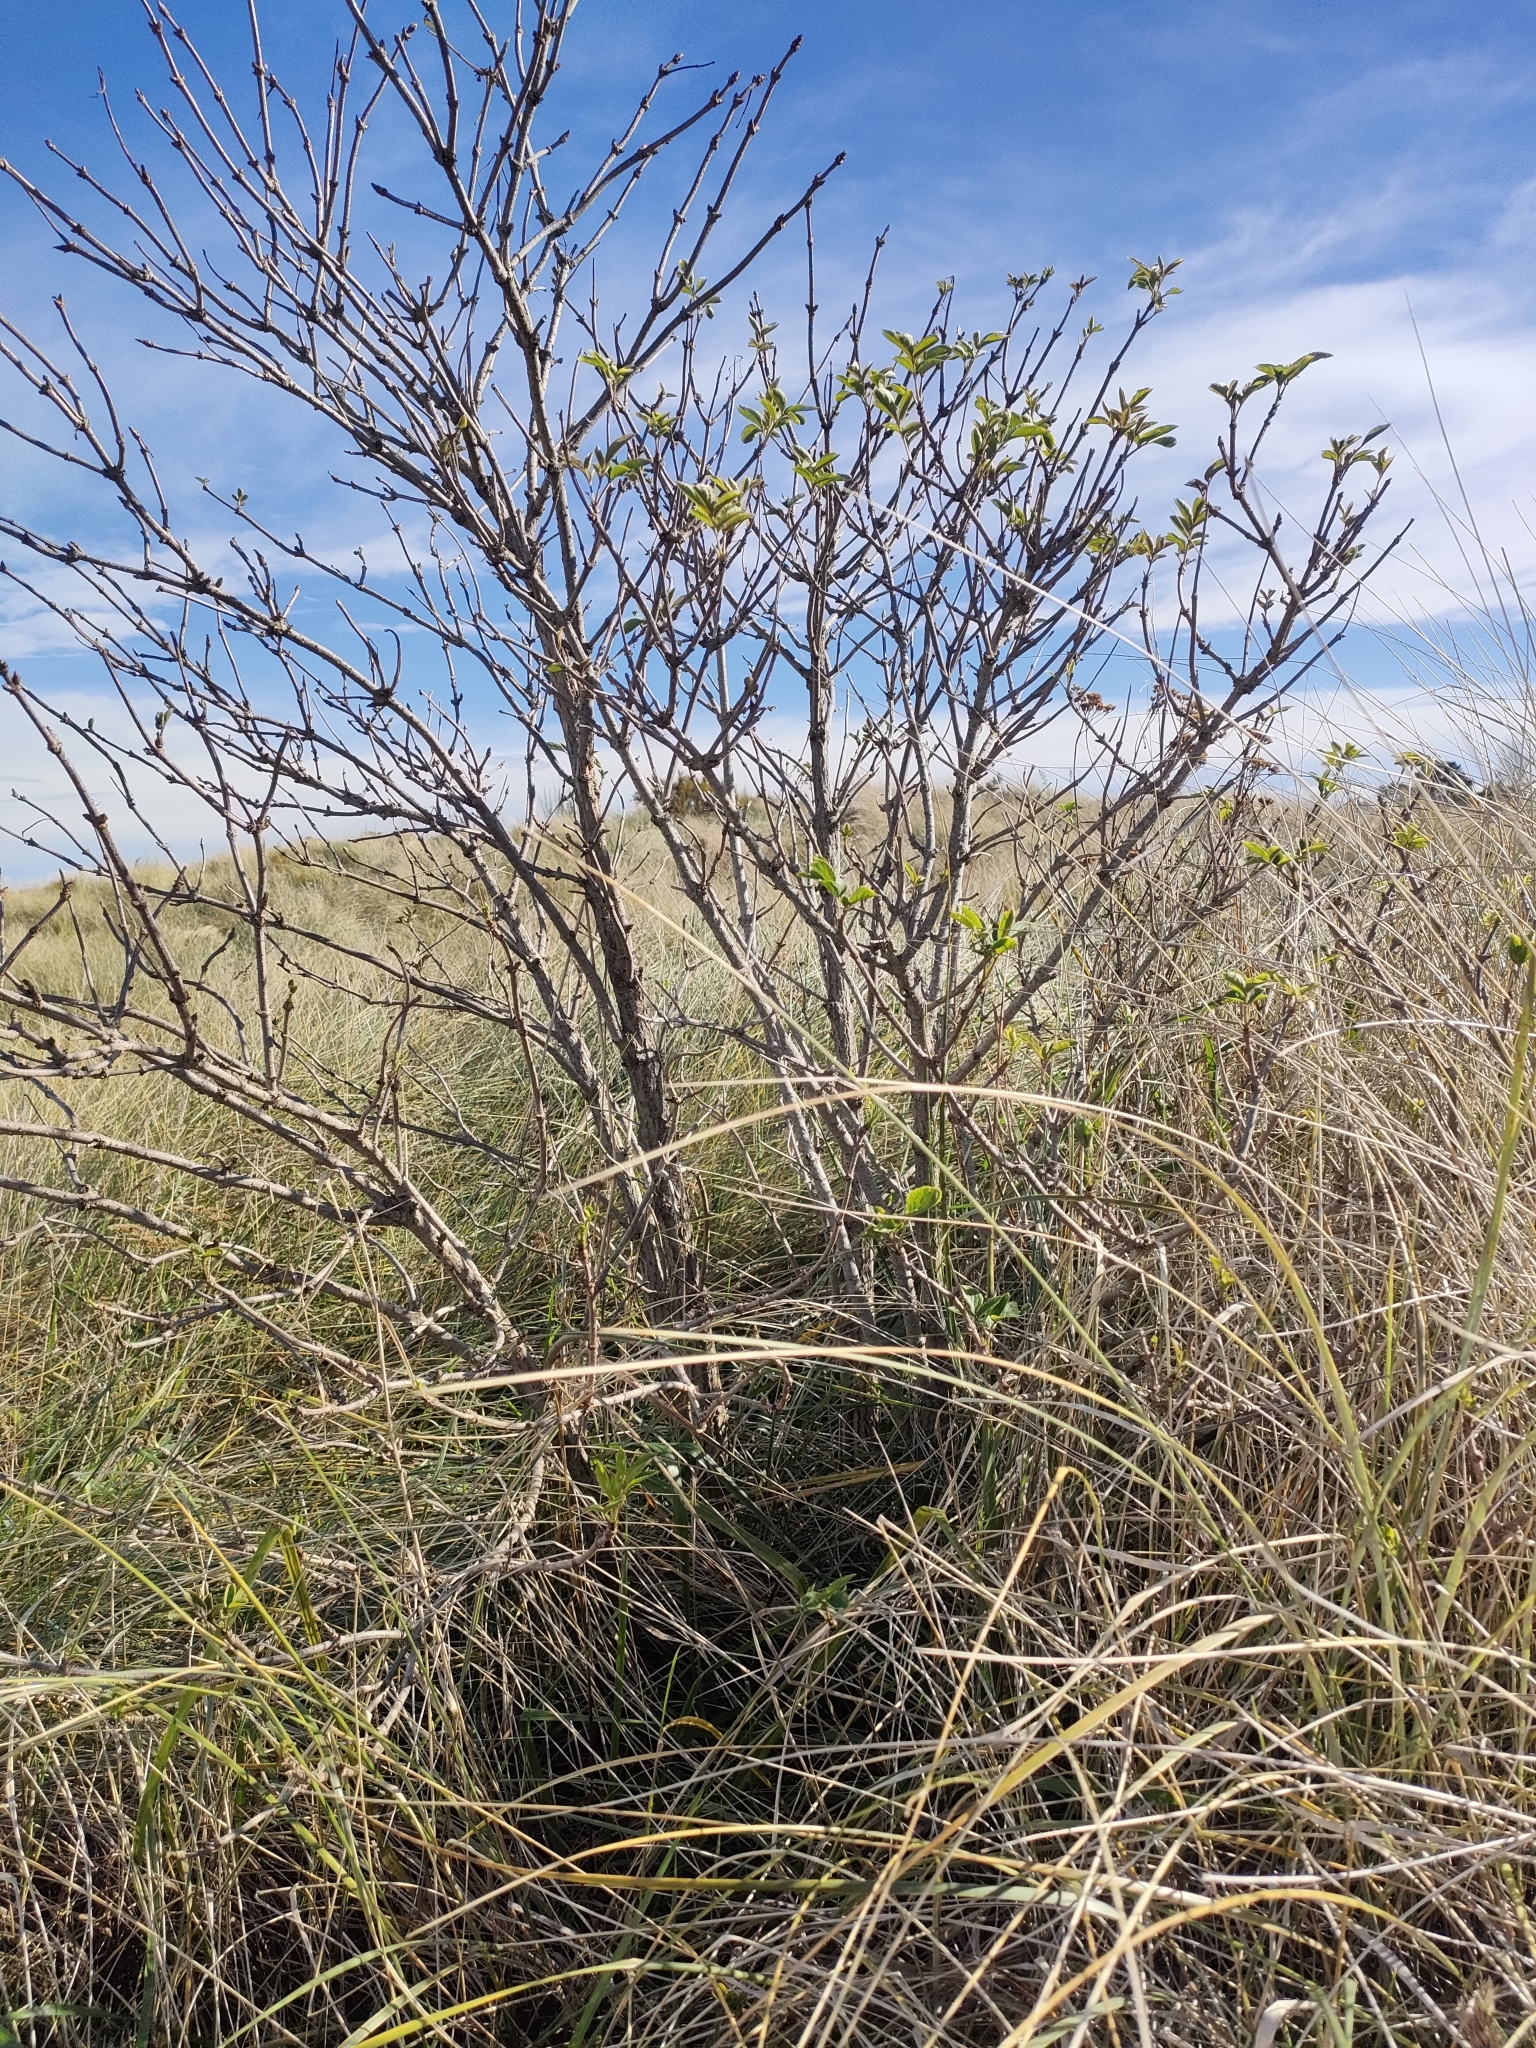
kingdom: Plantae
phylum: Tracheophyta
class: Magnoliopsida
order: Dipsacales
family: Viburnaceae
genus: Sambucus
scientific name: Sambucus nigra
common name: Elder
